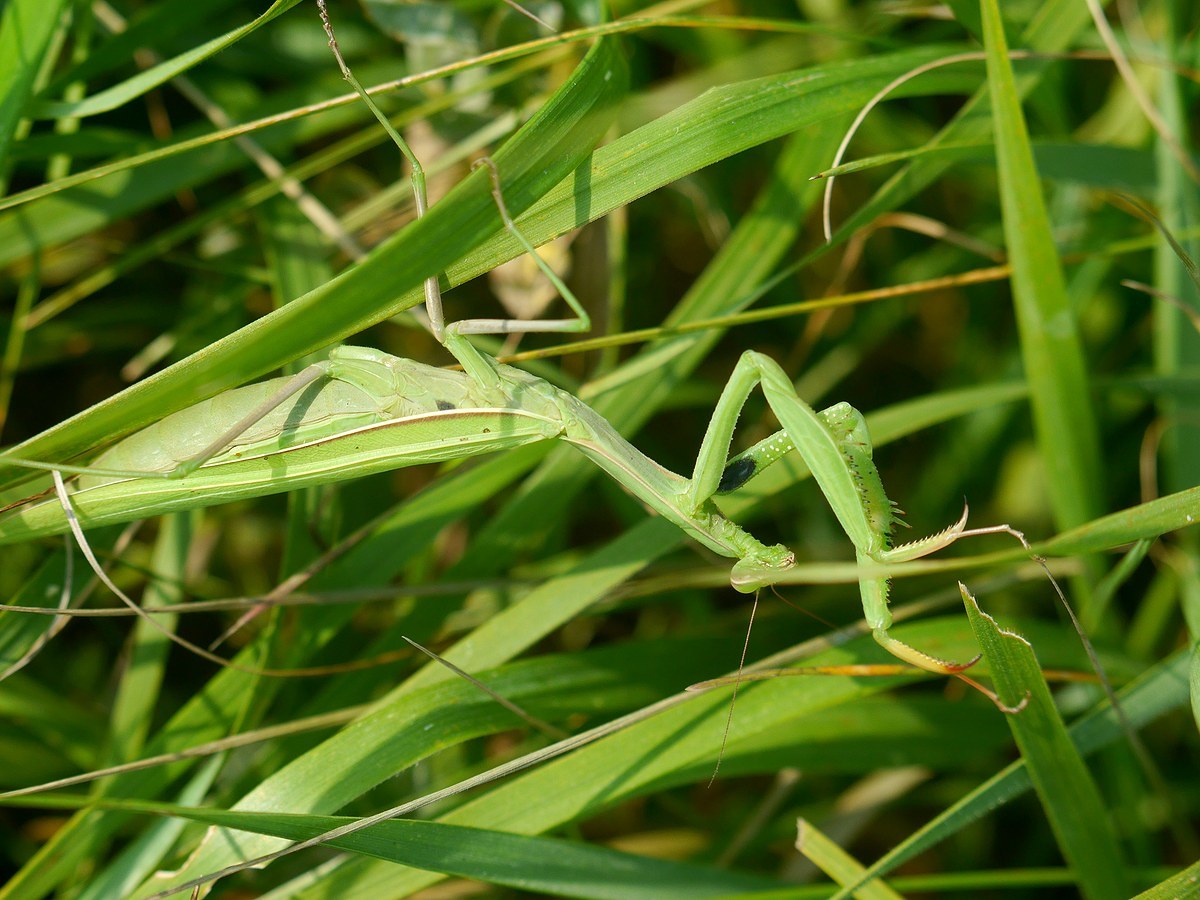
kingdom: Animalia
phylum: Arthropoda
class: Insecta
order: Mantodea
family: Mantidae
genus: Mantis
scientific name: Mantis religiosa
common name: Praying mantis
